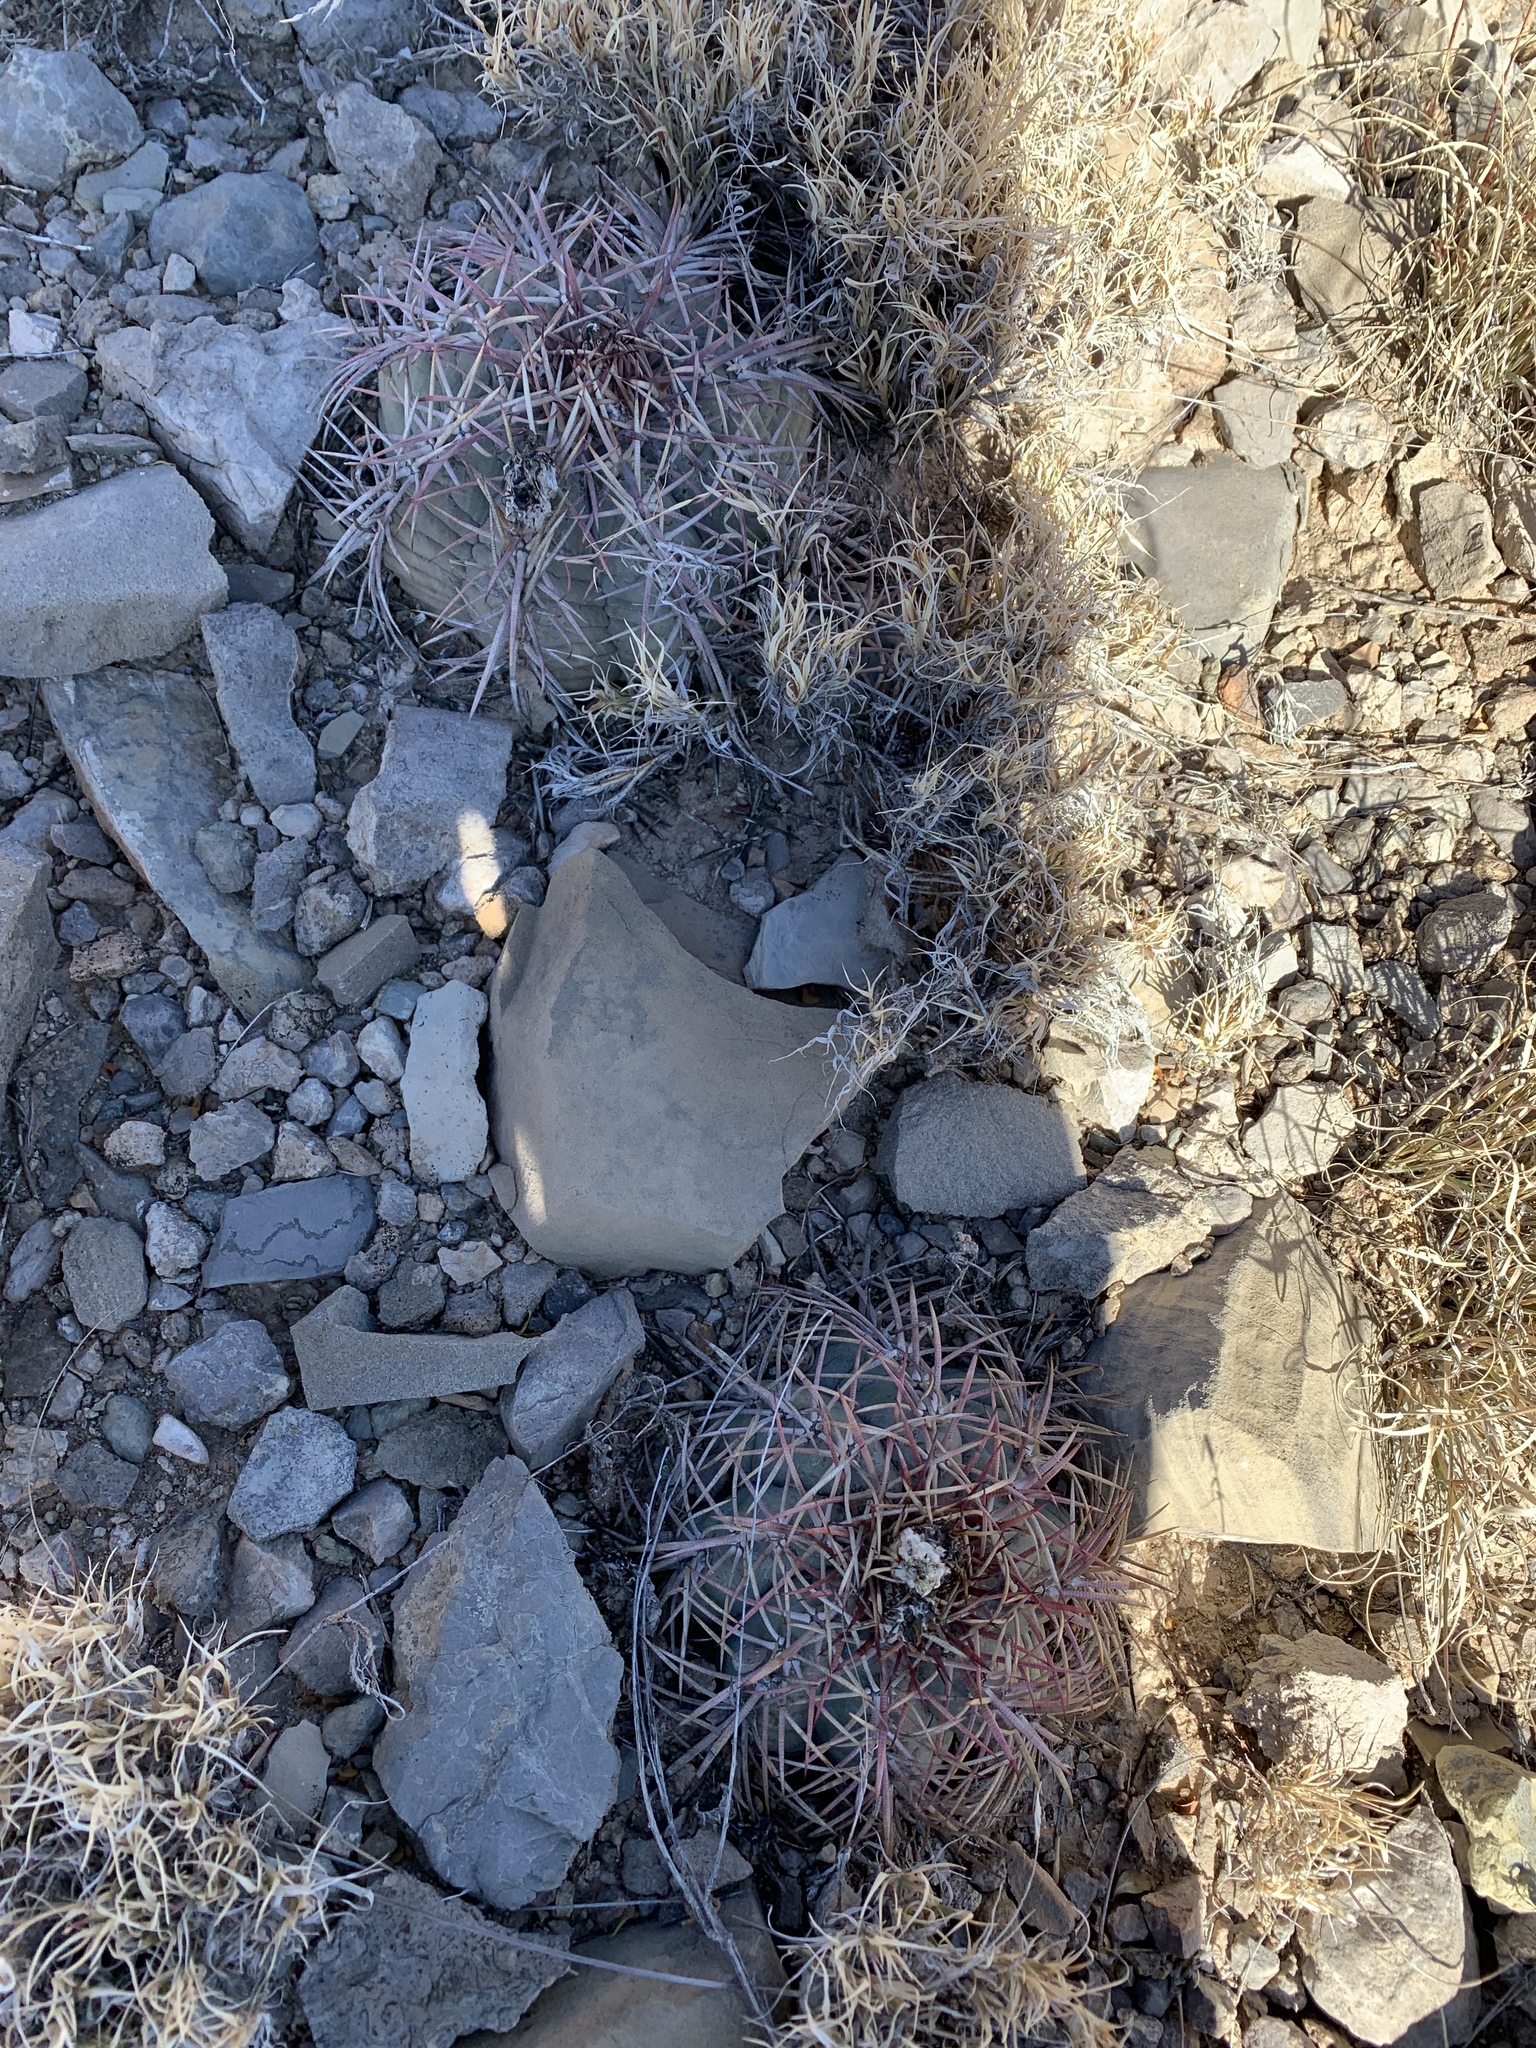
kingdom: Plantae
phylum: Tracheophyta
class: Magnoliopsida
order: Caryophyllales
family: Cactaceae
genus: Echinocactus
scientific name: Echinocactus horizonthalonius
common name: Devilshead
